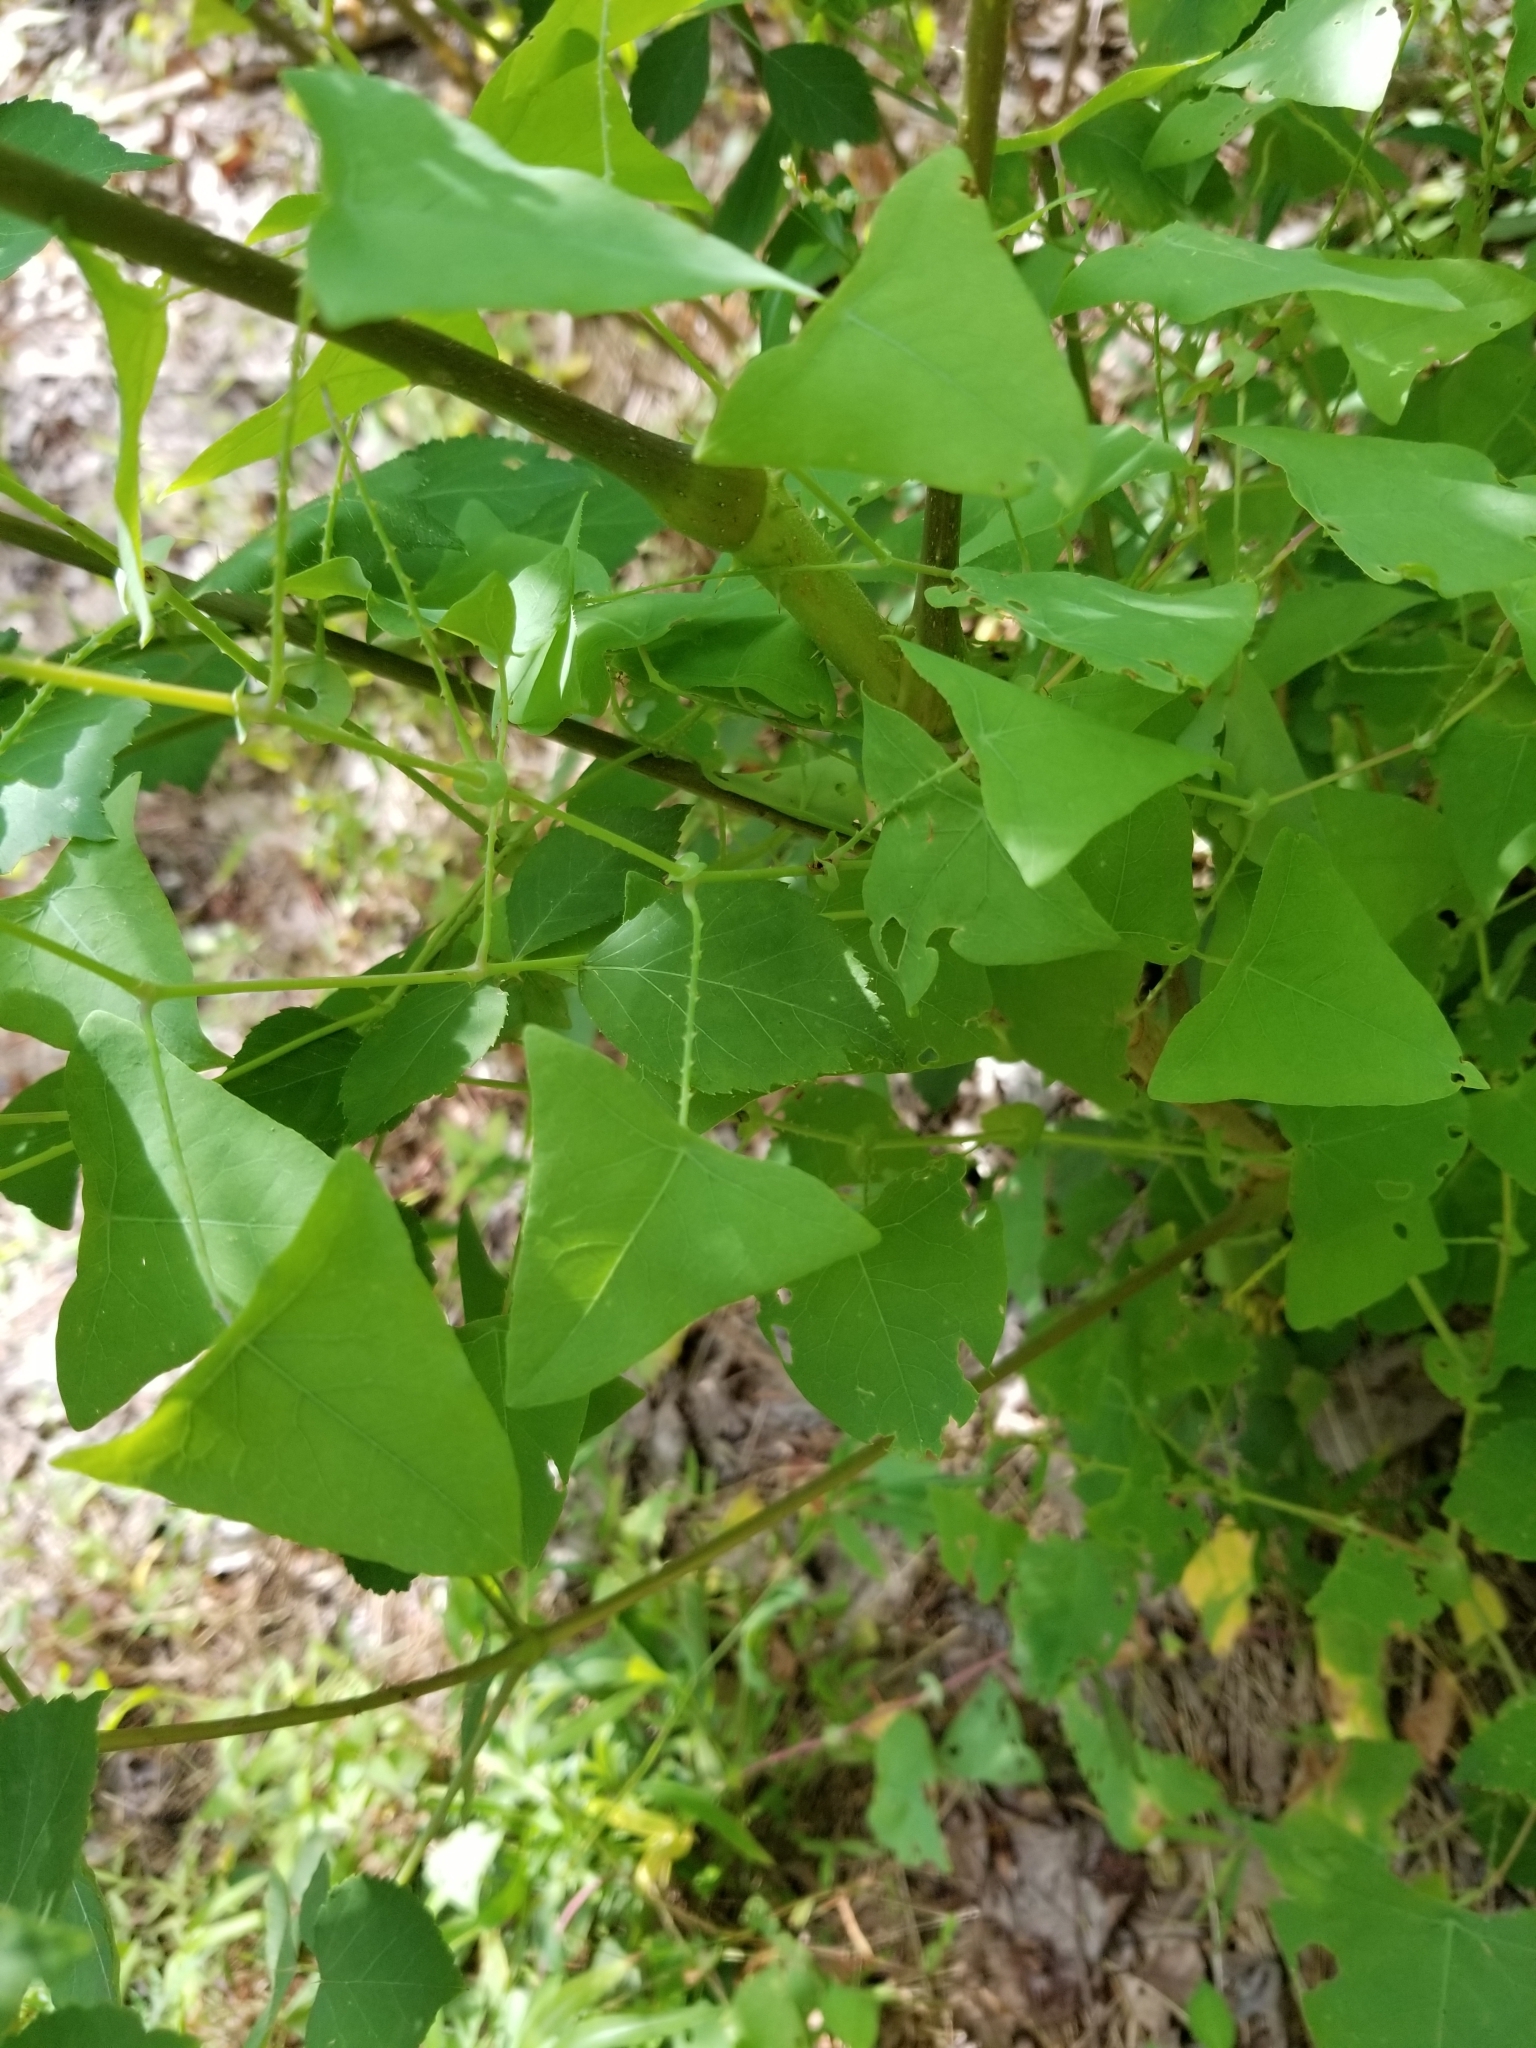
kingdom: Plantae
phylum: Tracheophyta
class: Magnoliopsida
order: Caryophyllales
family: Polygonaceae
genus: Persicaria
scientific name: Persicaria perfoliata
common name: Asiatic tearthumb
